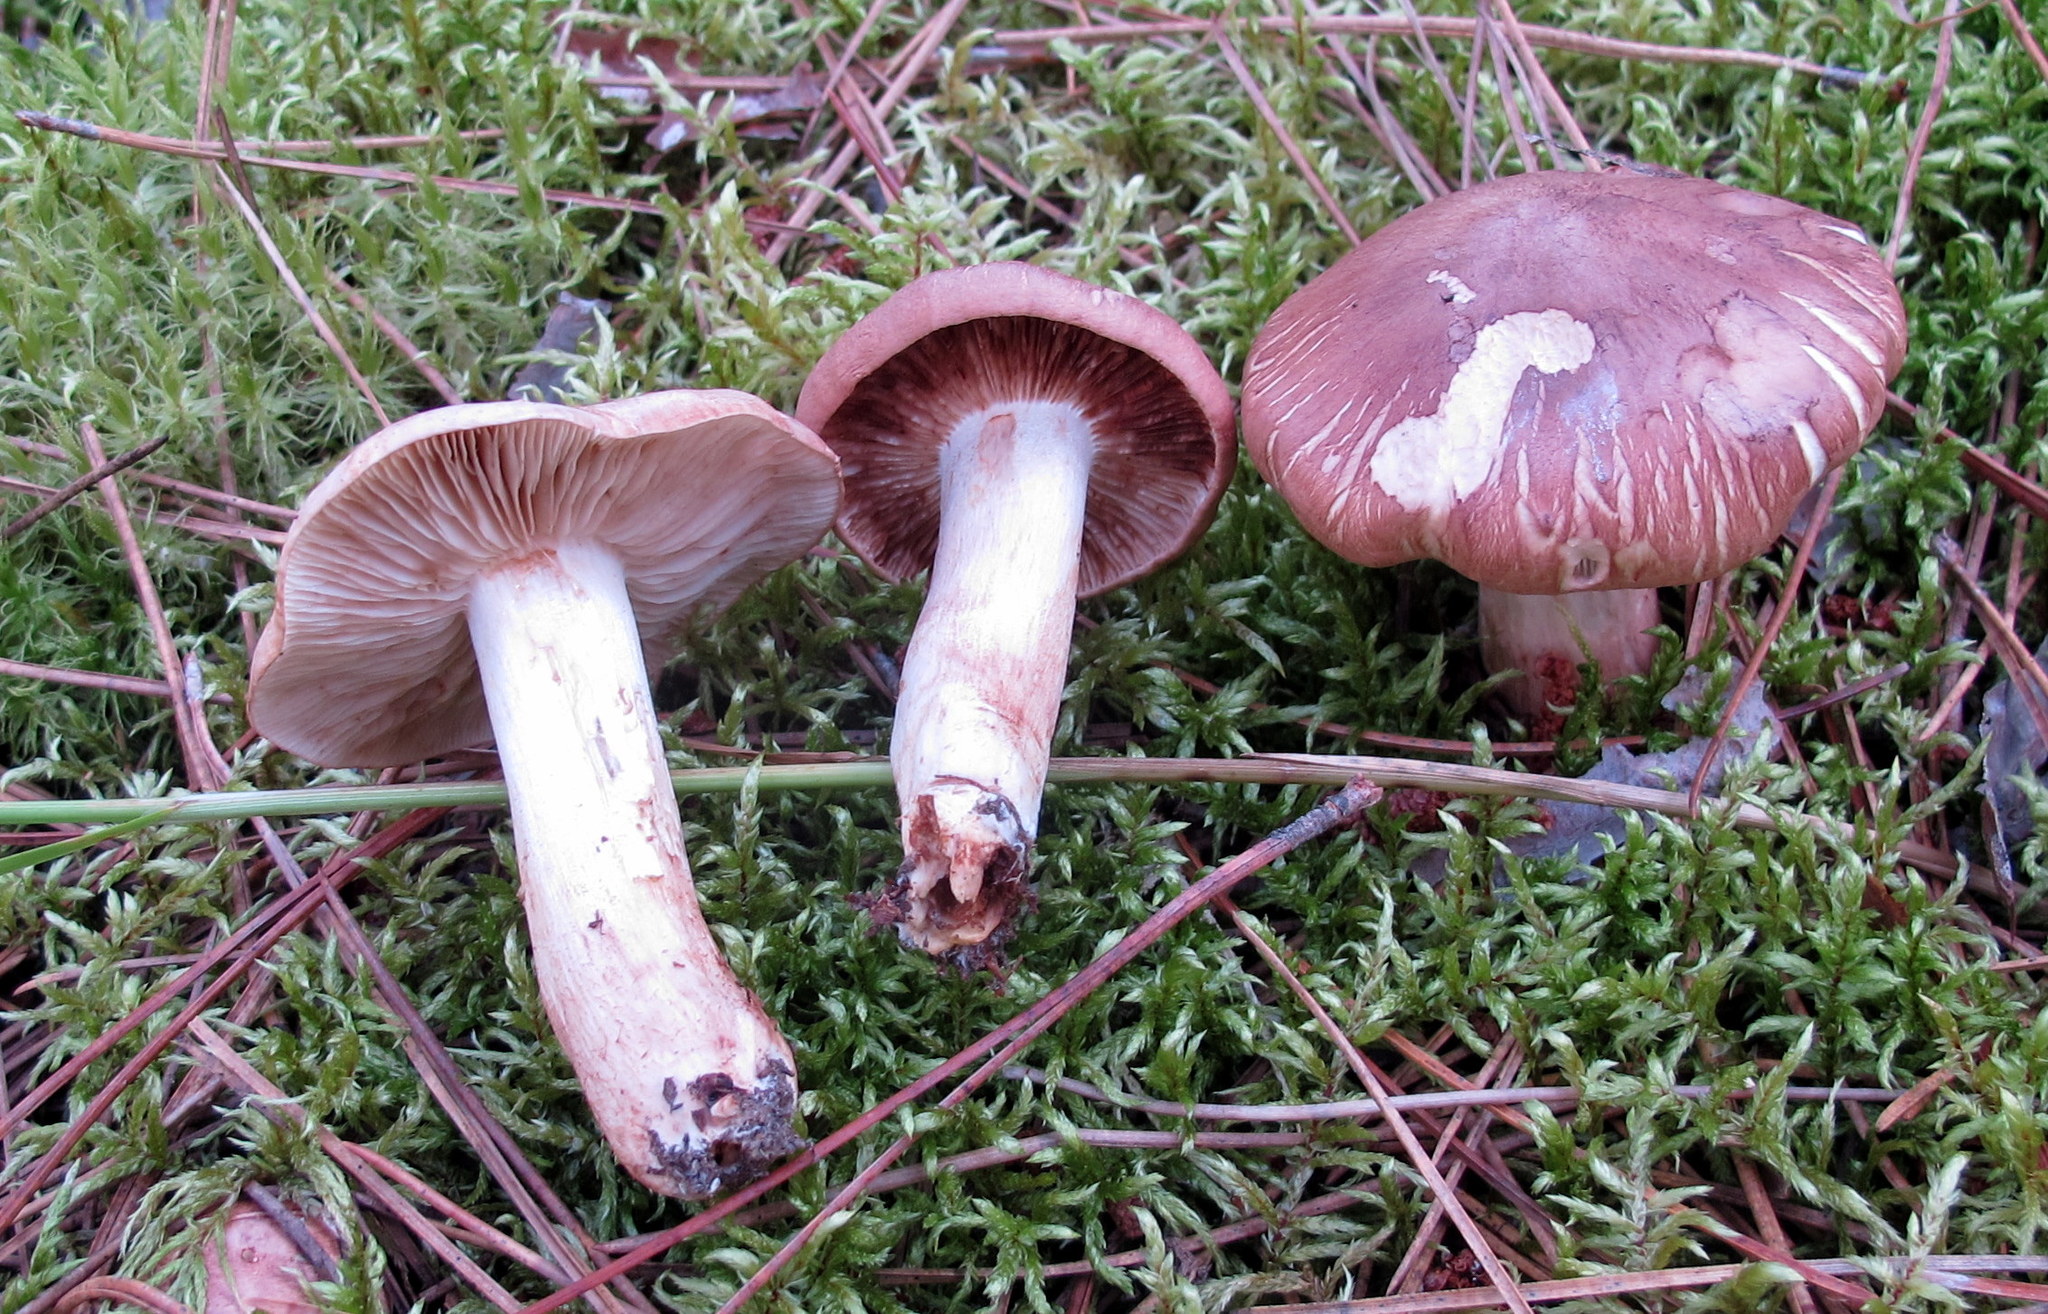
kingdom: Fungi
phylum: Basidiomycota
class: Agaricomycetes
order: Agaricales
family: Hygrophoraceae
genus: Hygrophorus
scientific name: Hygrophorus capreolarius
